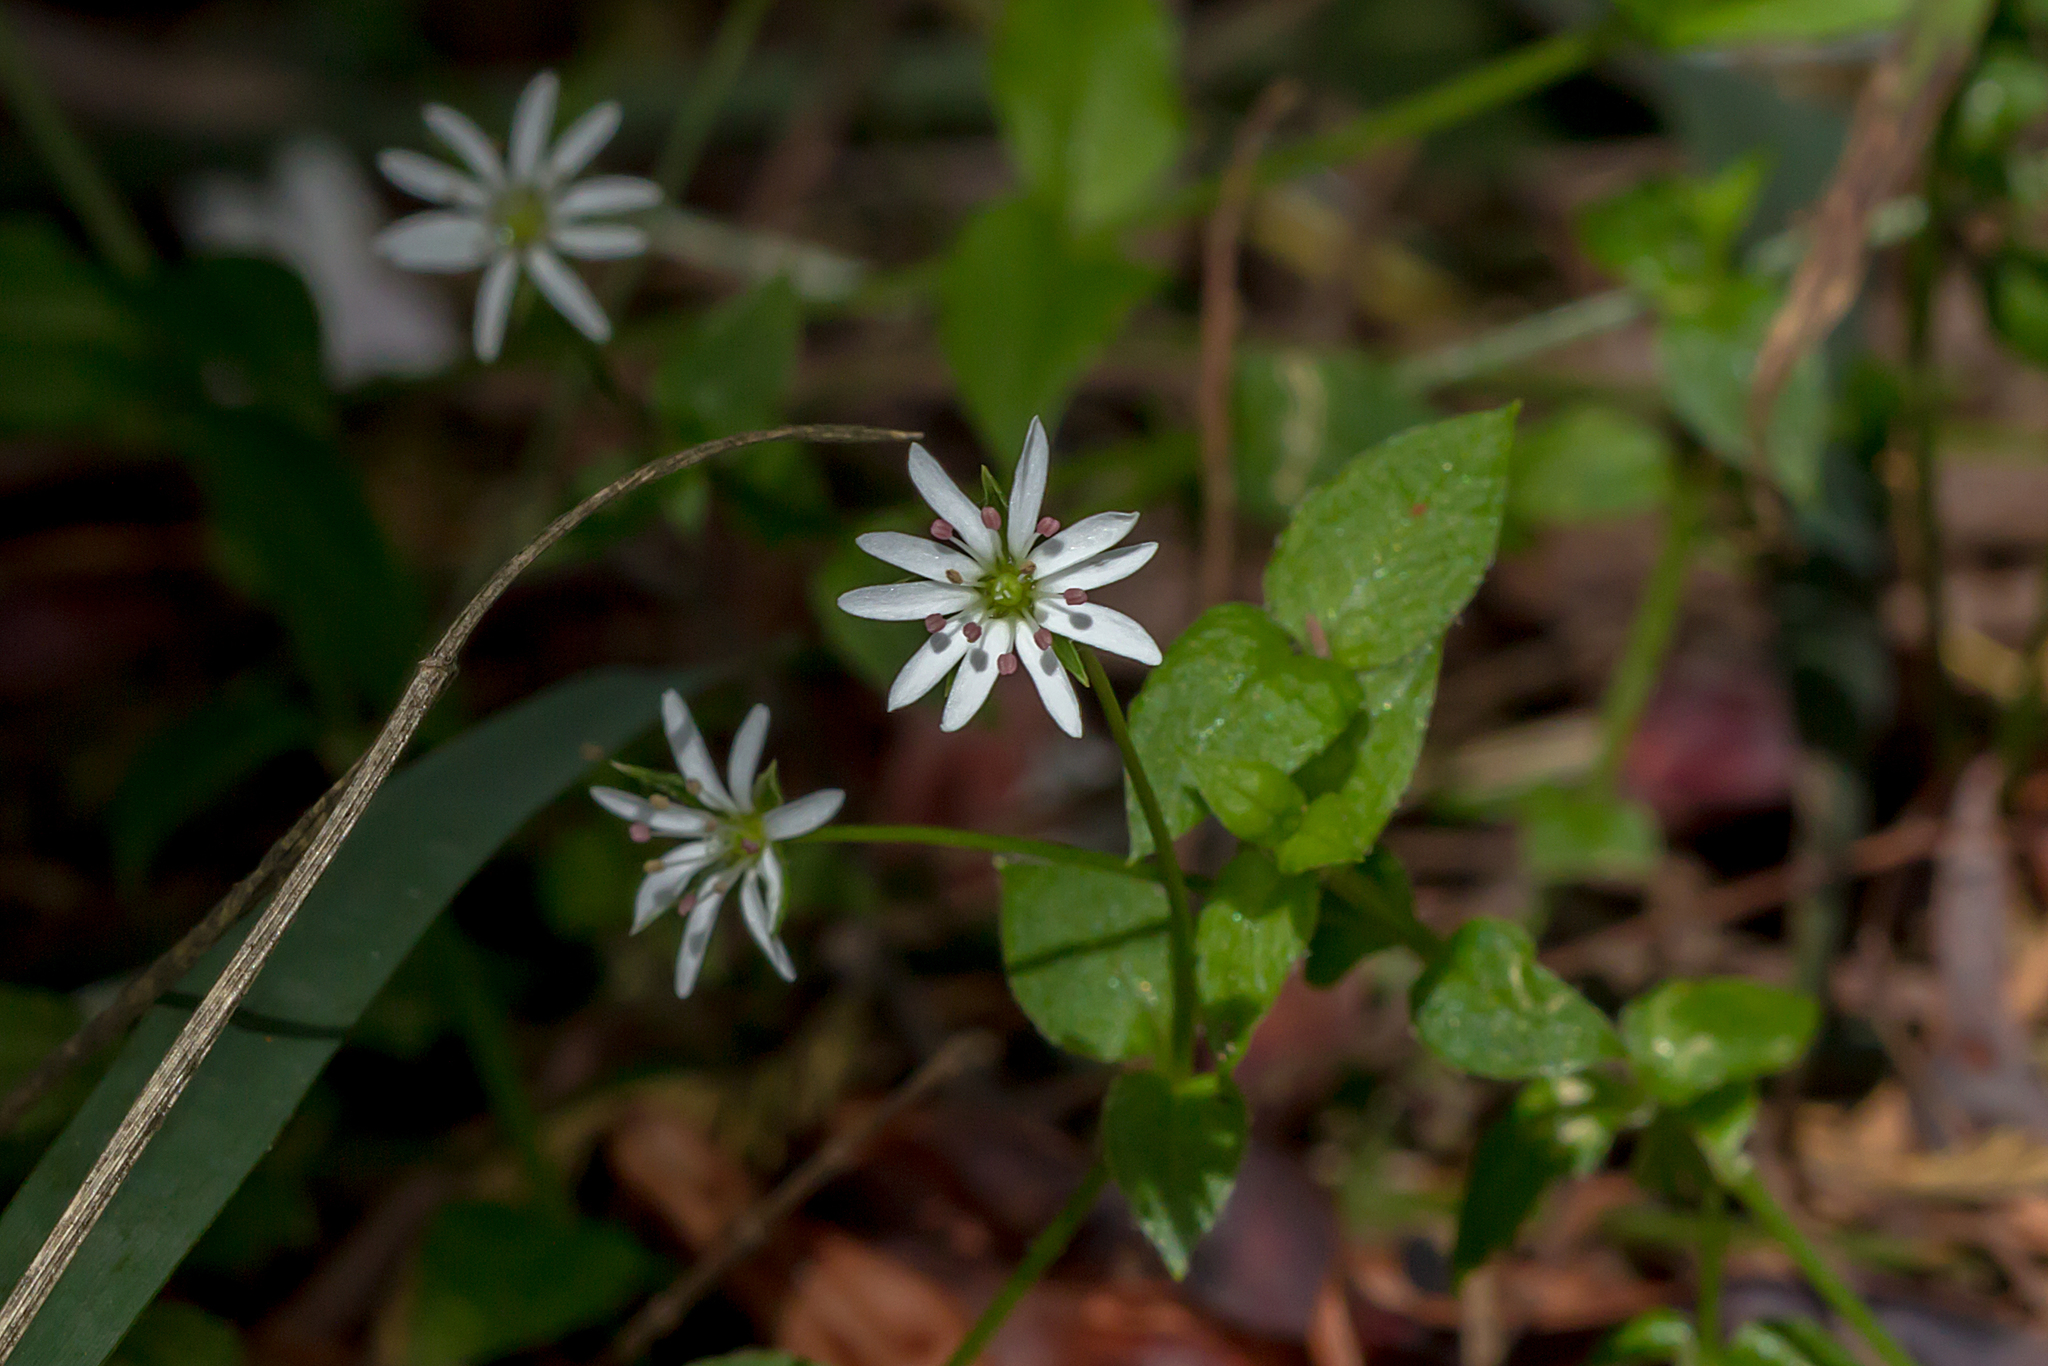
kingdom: Plantae
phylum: Tracheophyta
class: Magnoliopsida
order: Caryophyllales
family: Caryophyllaceae
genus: Stellaria
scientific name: Stellaria flaccida
